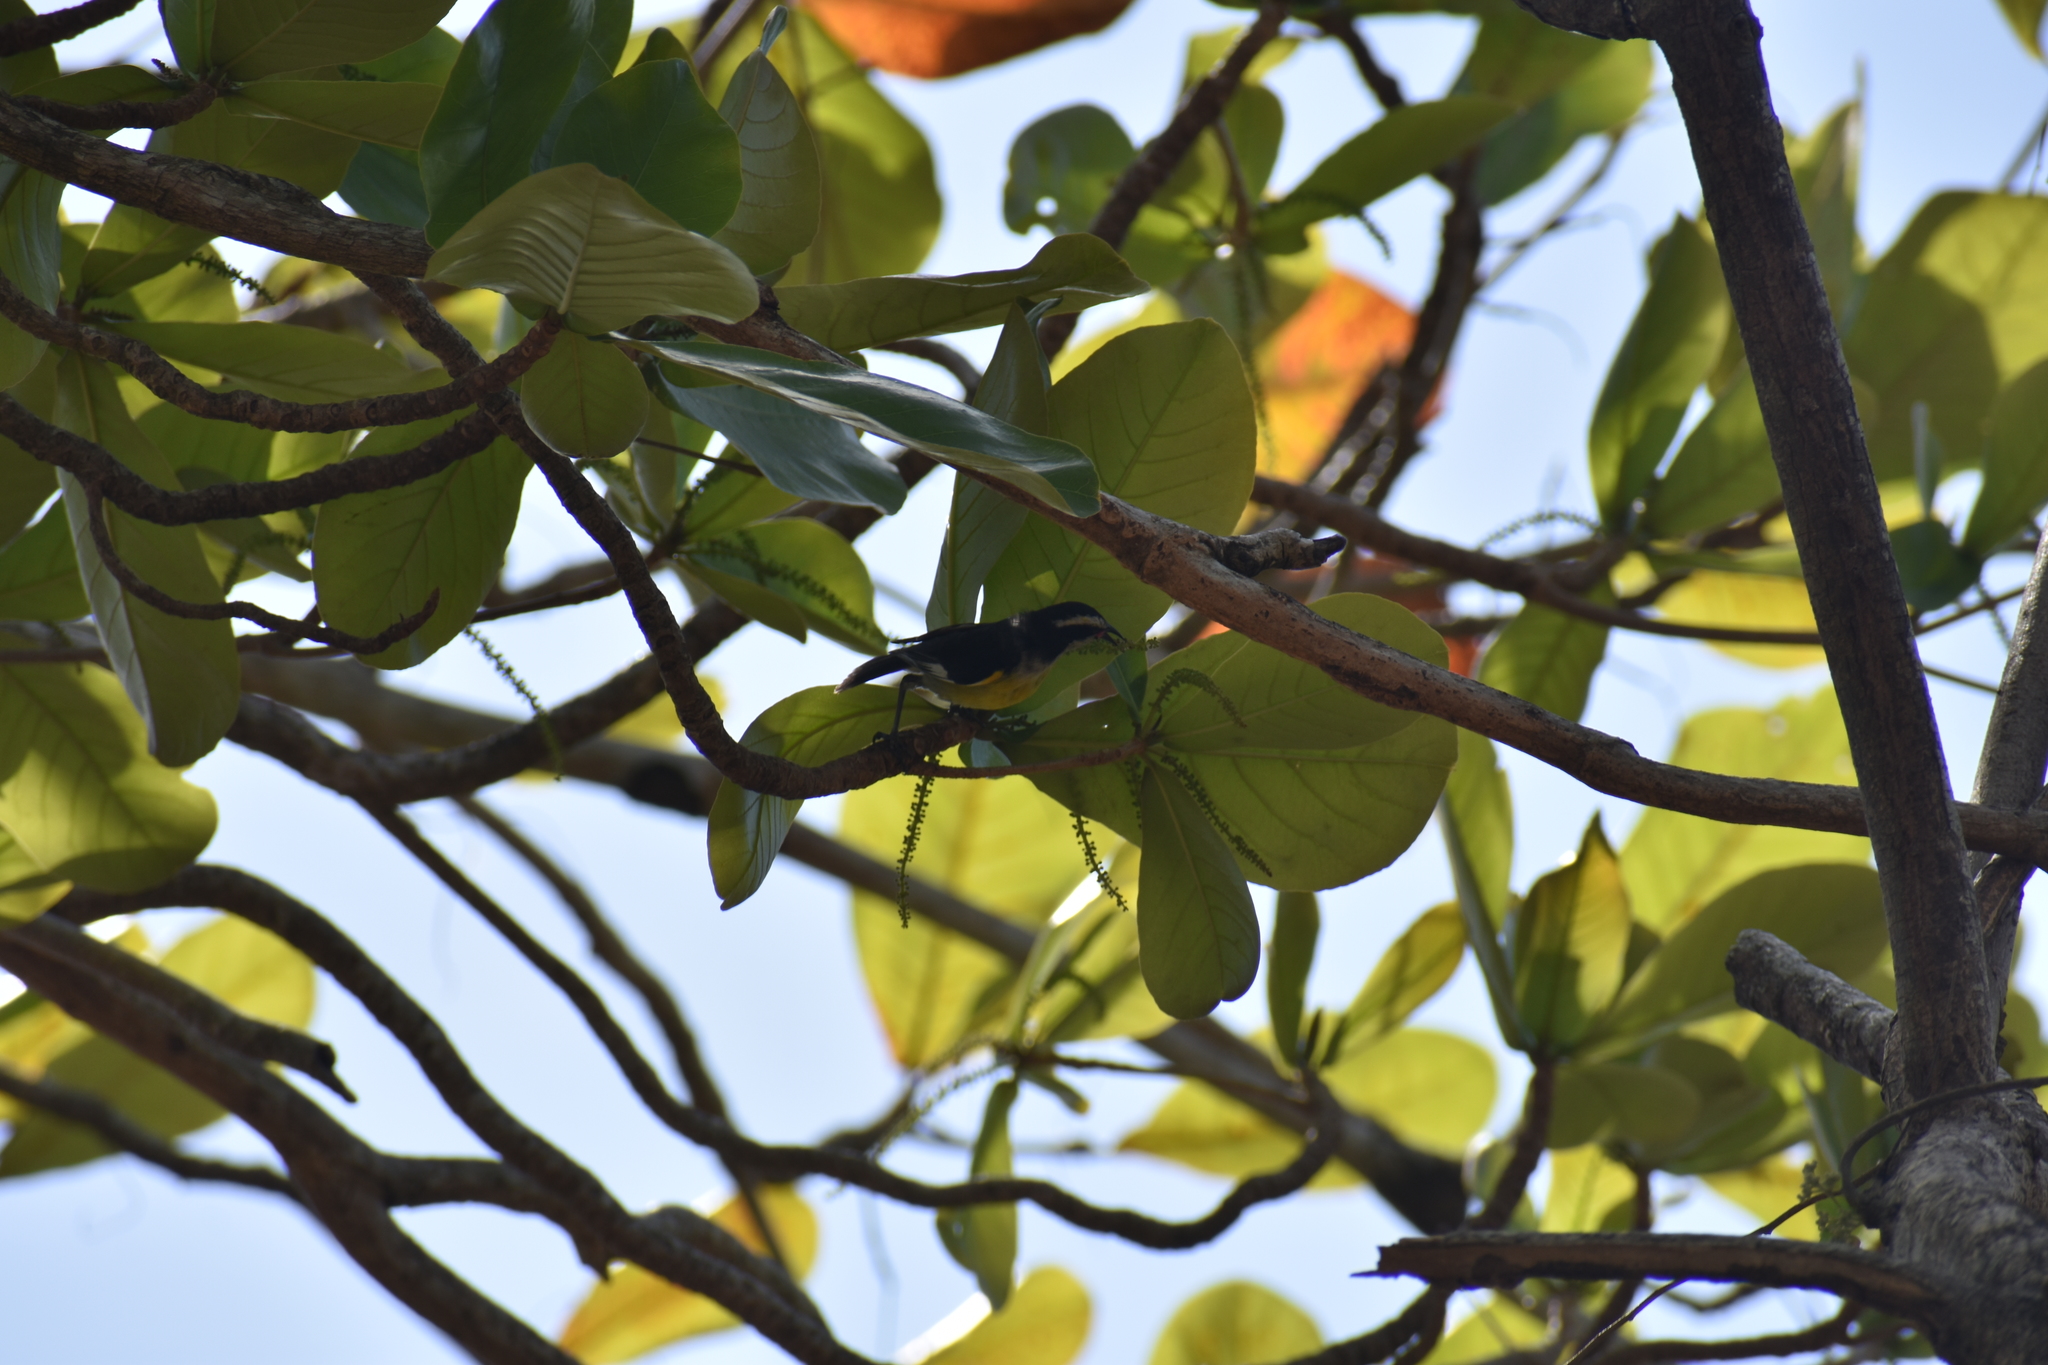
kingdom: Animalia
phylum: Chordata
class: Aves
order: Passeriformes
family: Thraupidae
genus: Coereba
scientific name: Coereba flaveola
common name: Bananaquit
